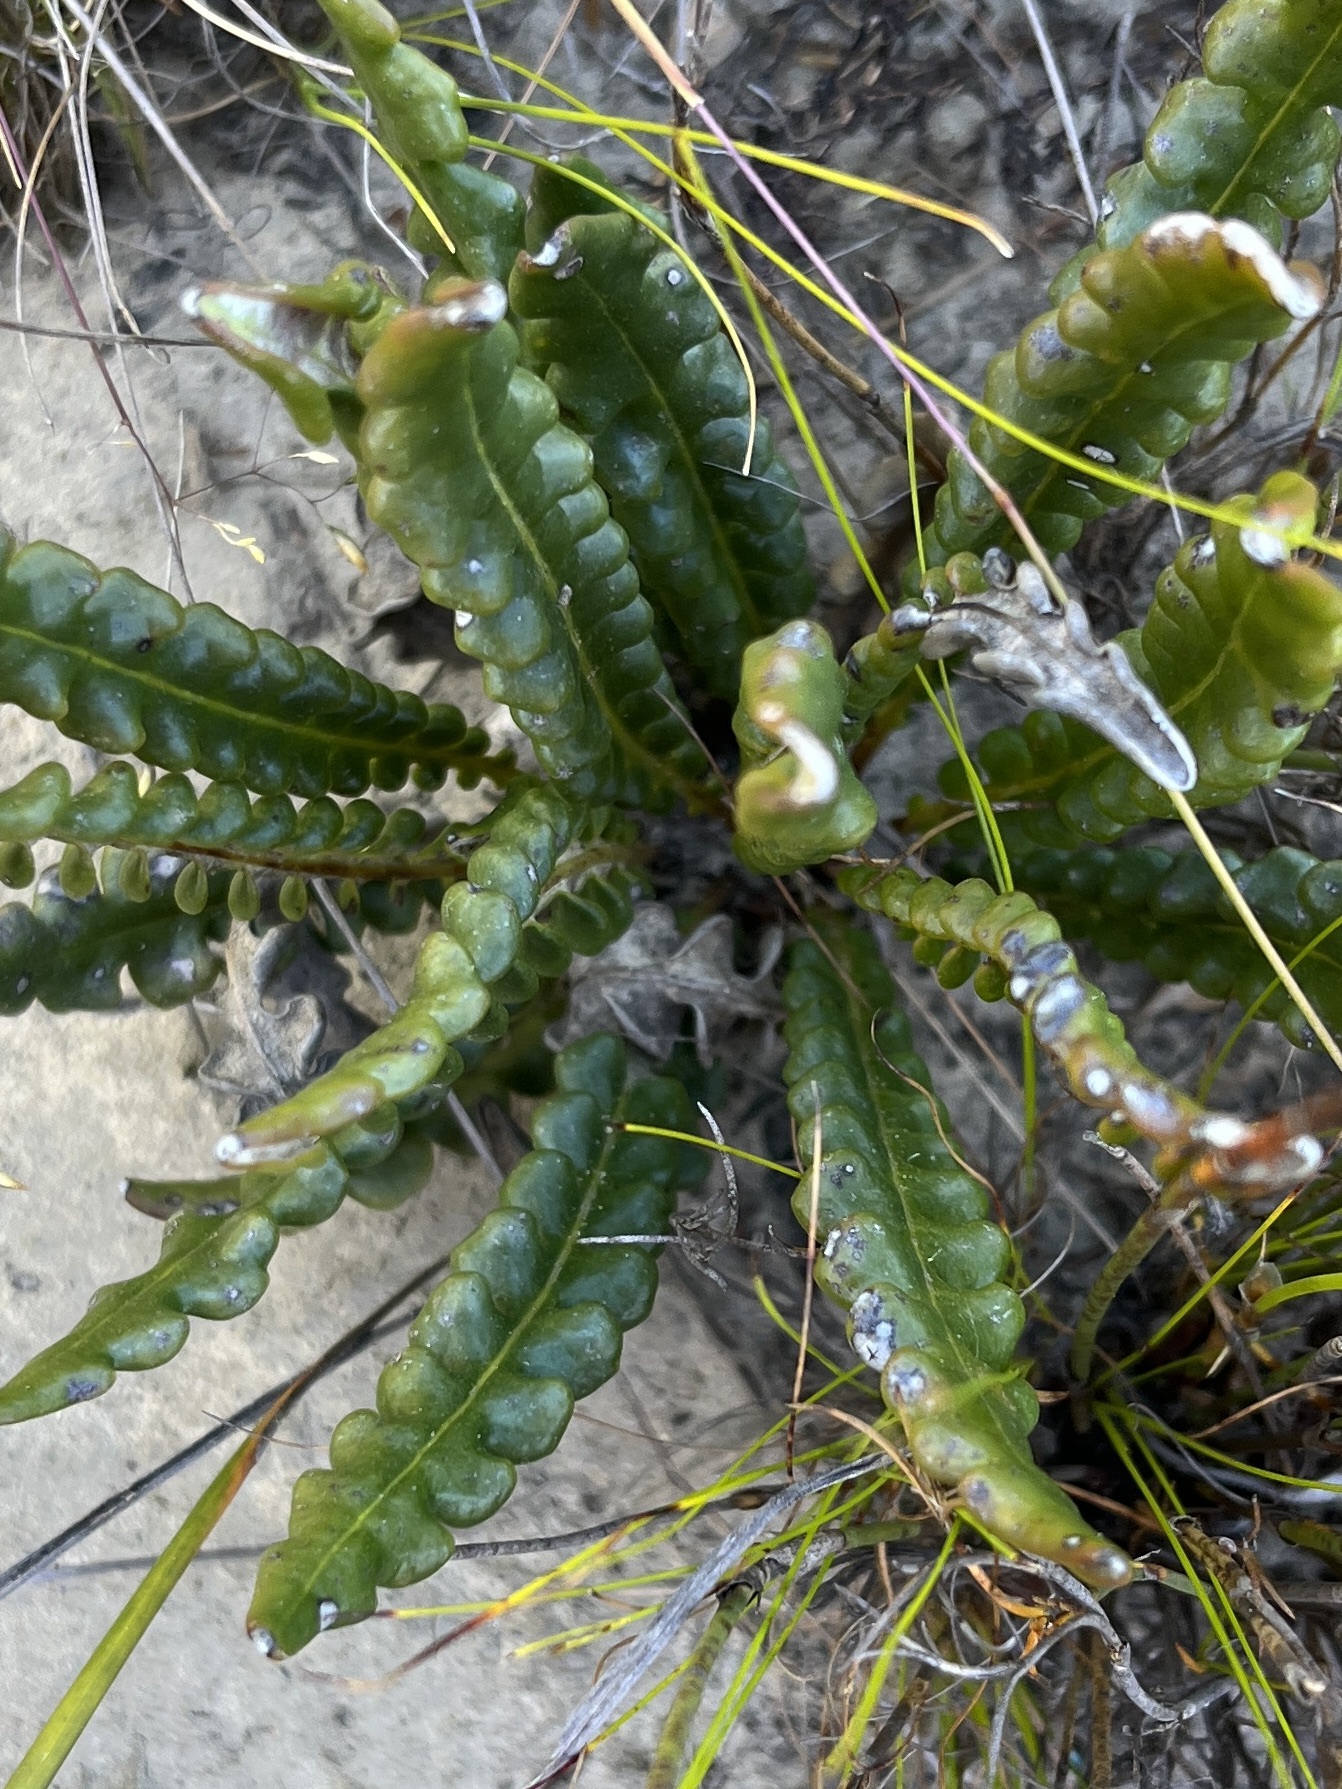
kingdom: Plantae
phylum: Tracheophyta
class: Magnoliopsida
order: Asterales
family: Asteraceae
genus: Gerbera
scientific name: Gerbera linnaei
